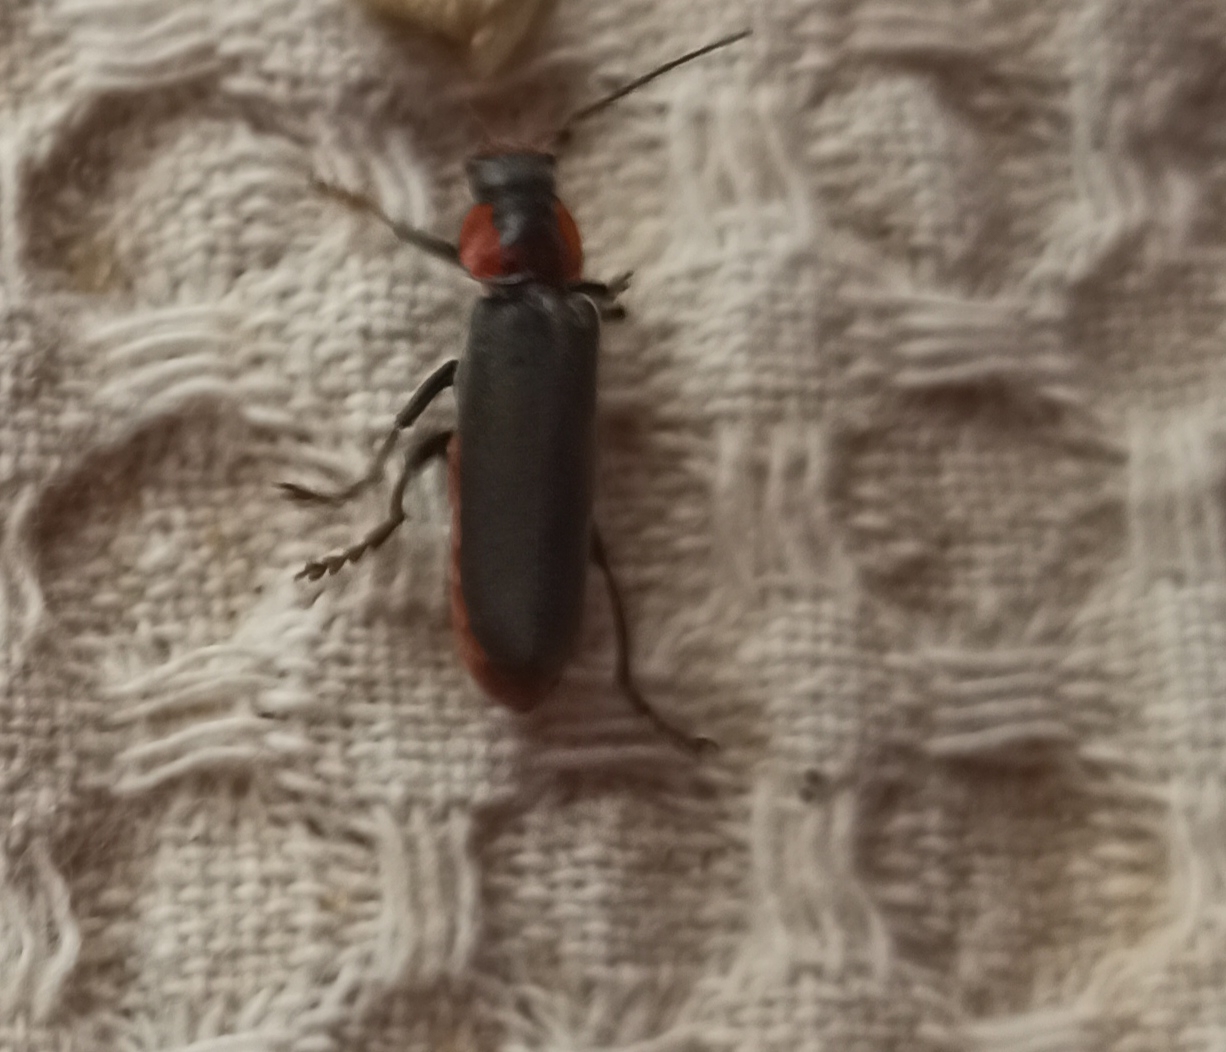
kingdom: Animalia
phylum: Arthropoda
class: Insecta
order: Coleoptera
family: Cantharidae
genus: Cantharis
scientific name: Cantharis fusca
